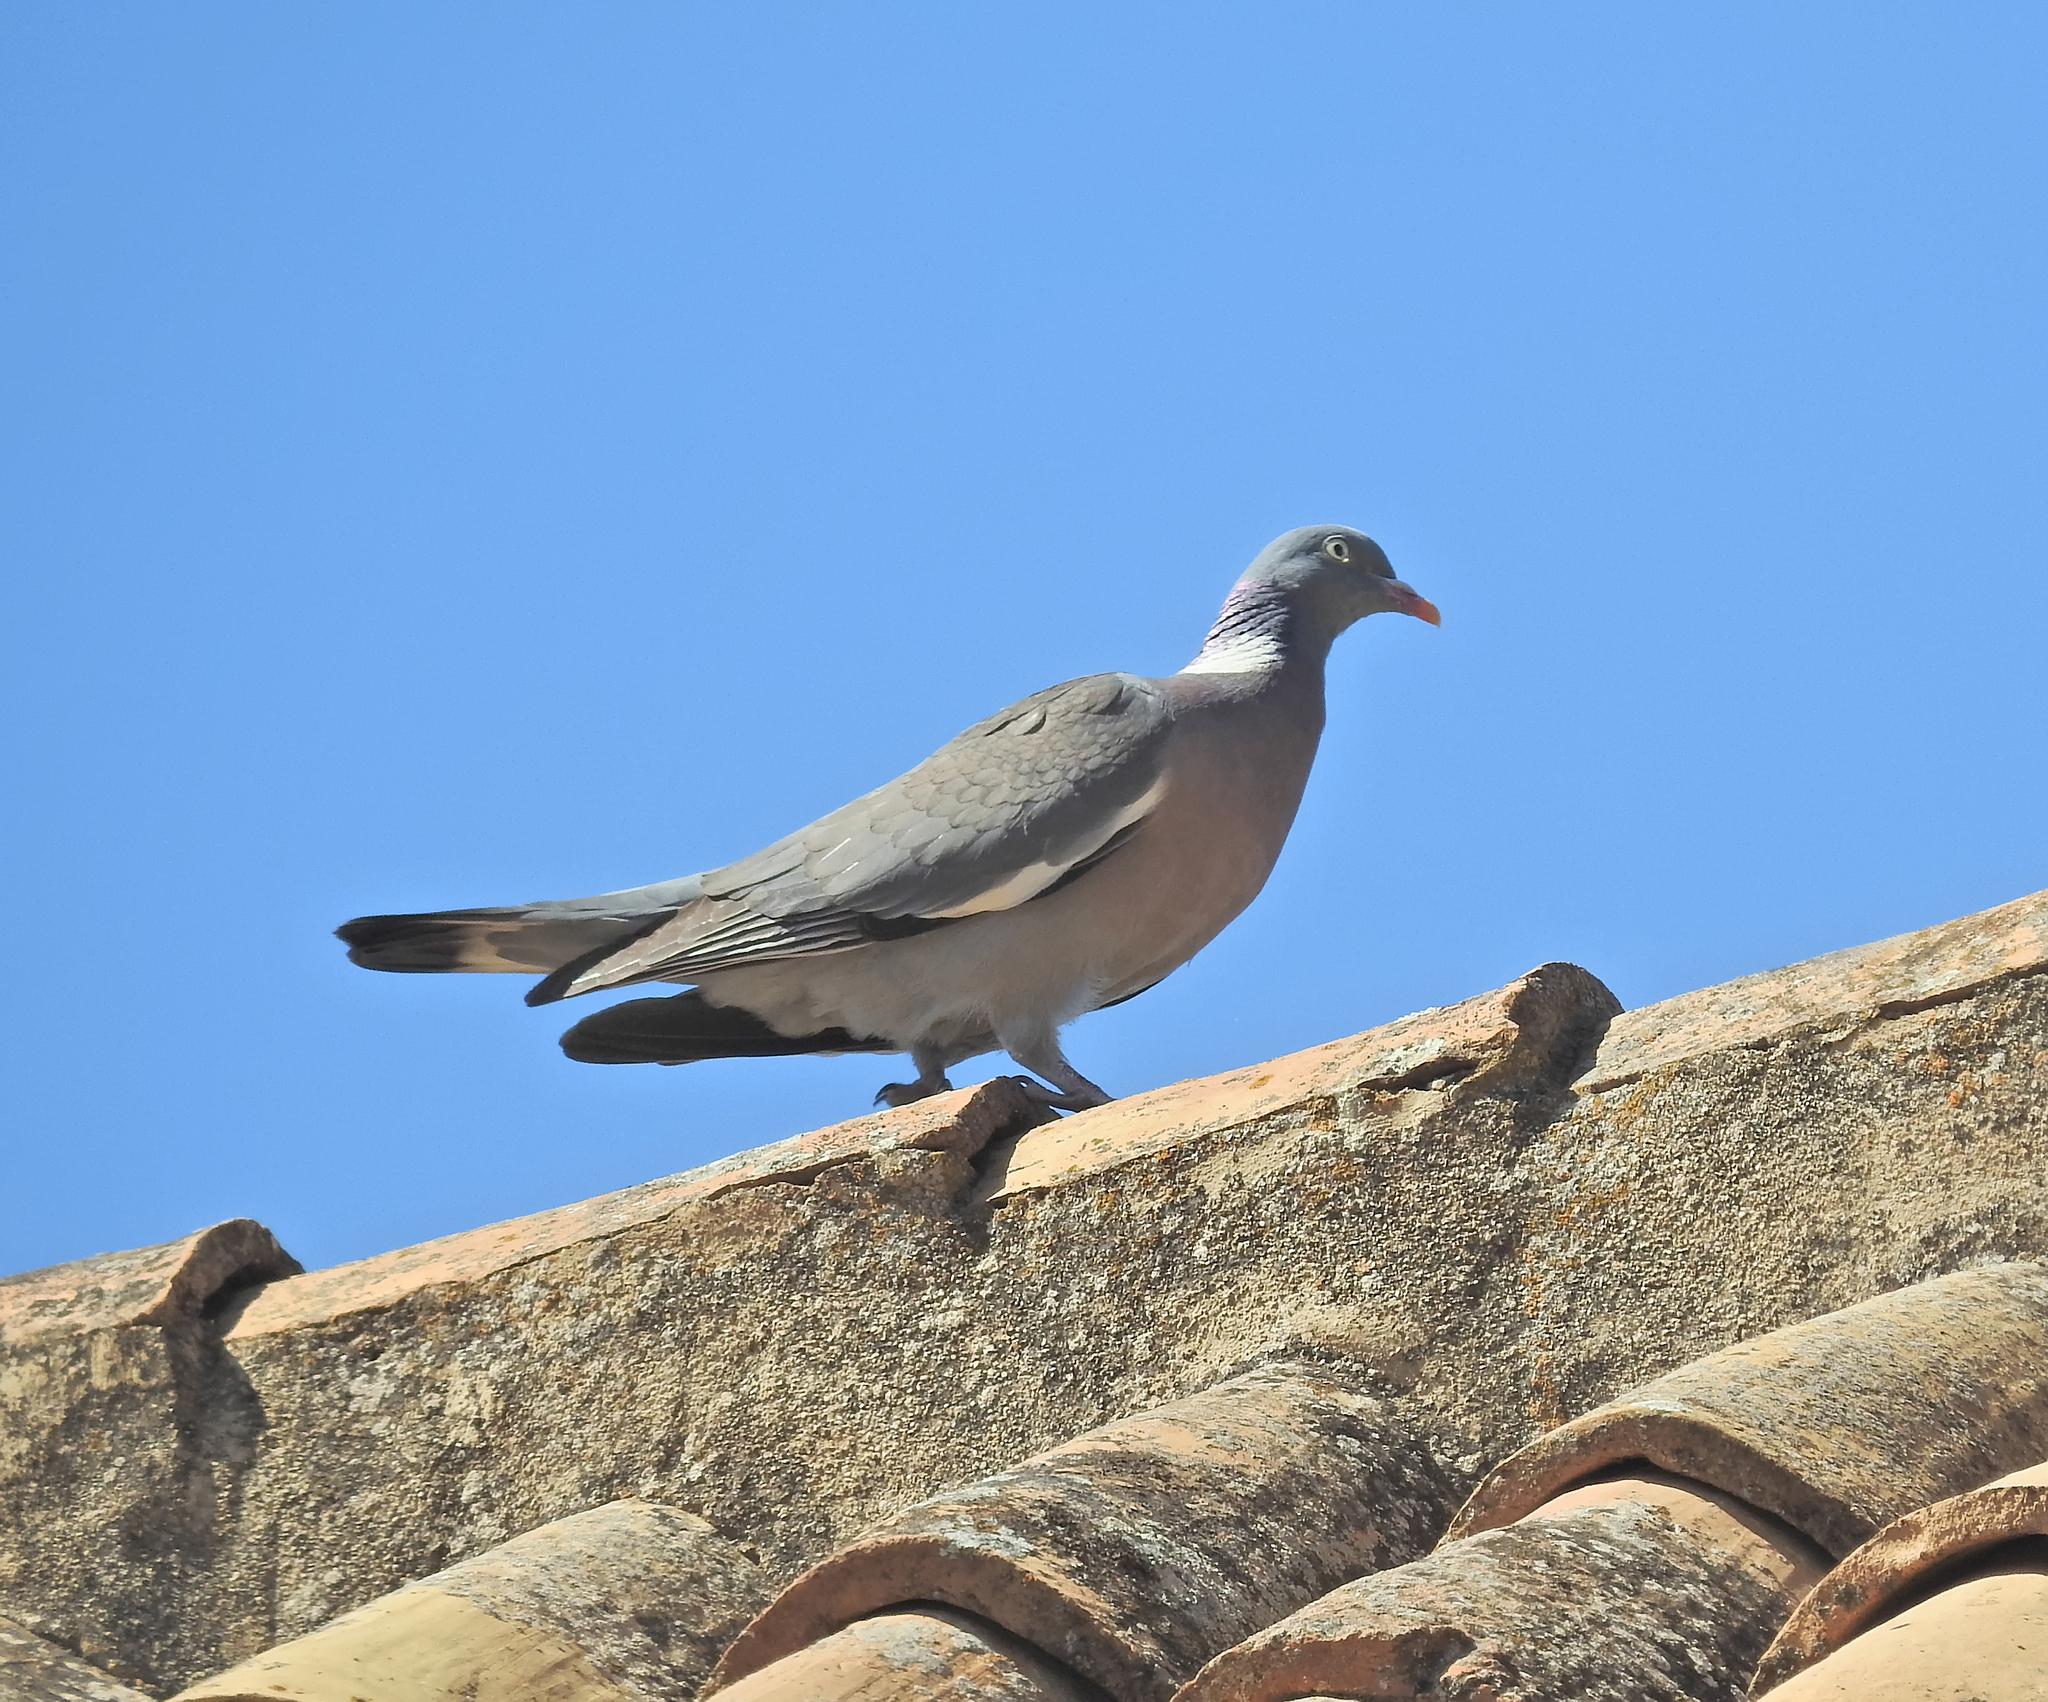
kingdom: Animalia
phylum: Chordata
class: Aves
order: Columbiformes
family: Columbidae
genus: Columba
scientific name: Columba palumbus
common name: Common wood pigeon
